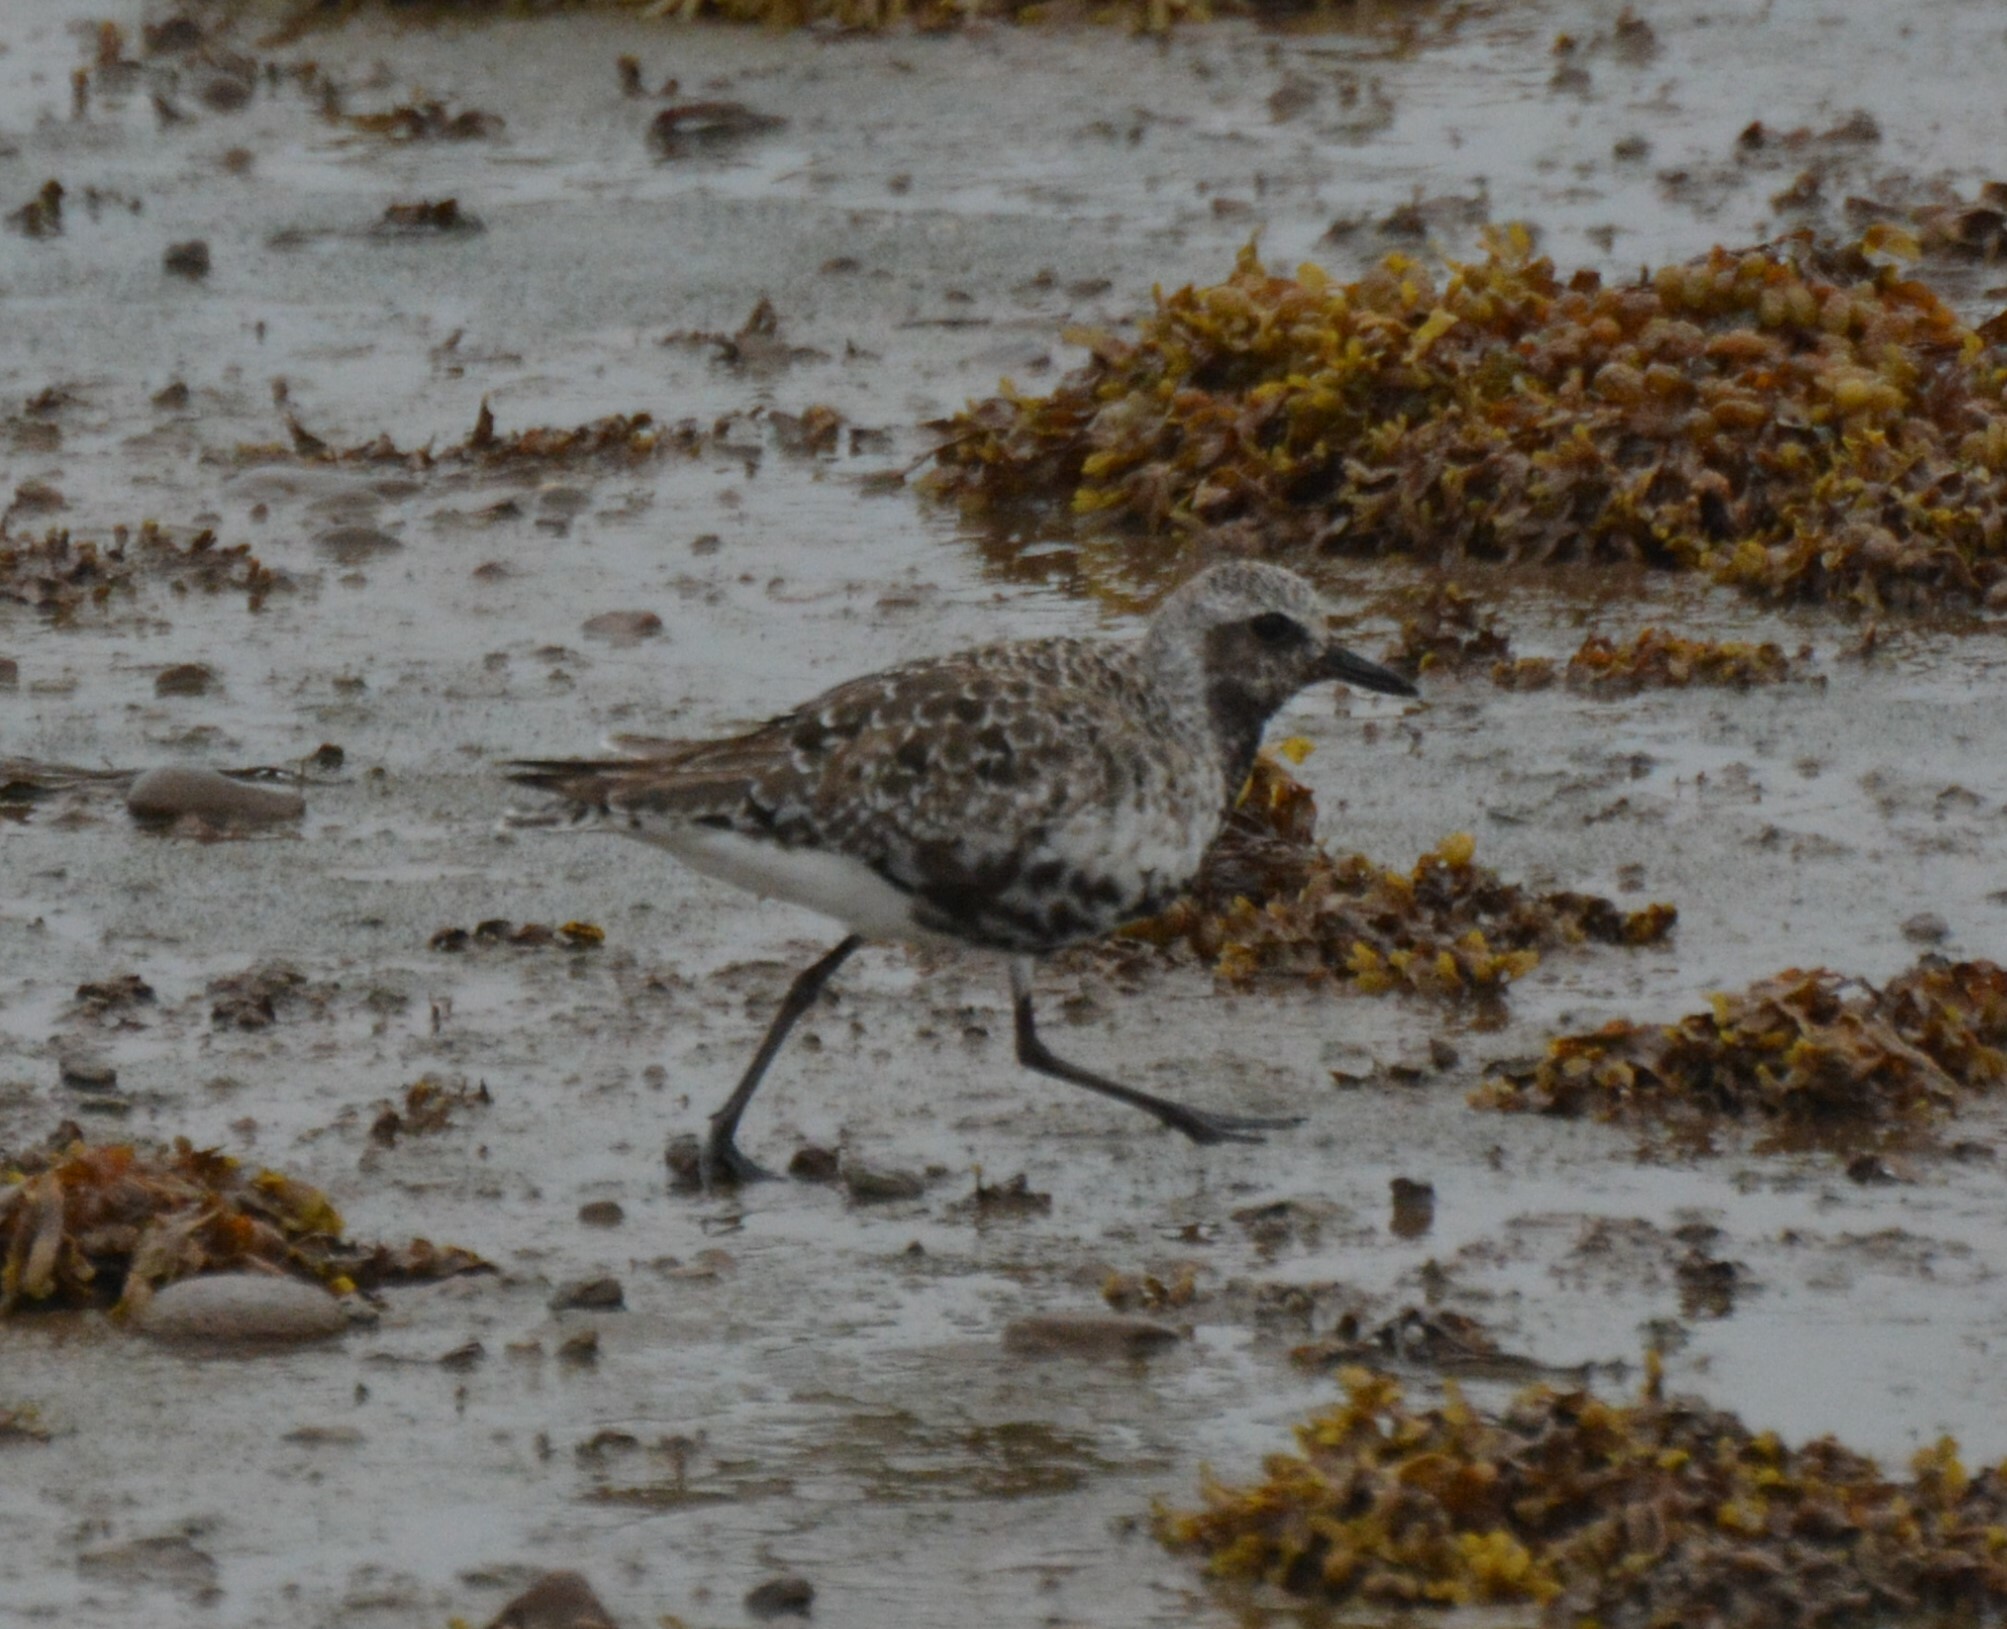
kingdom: Animalia
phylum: Chordata
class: Aves
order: Charadriiformes
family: Charadriidae
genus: Pluvialis
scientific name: Pluvialis squatarola
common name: Grey plover
